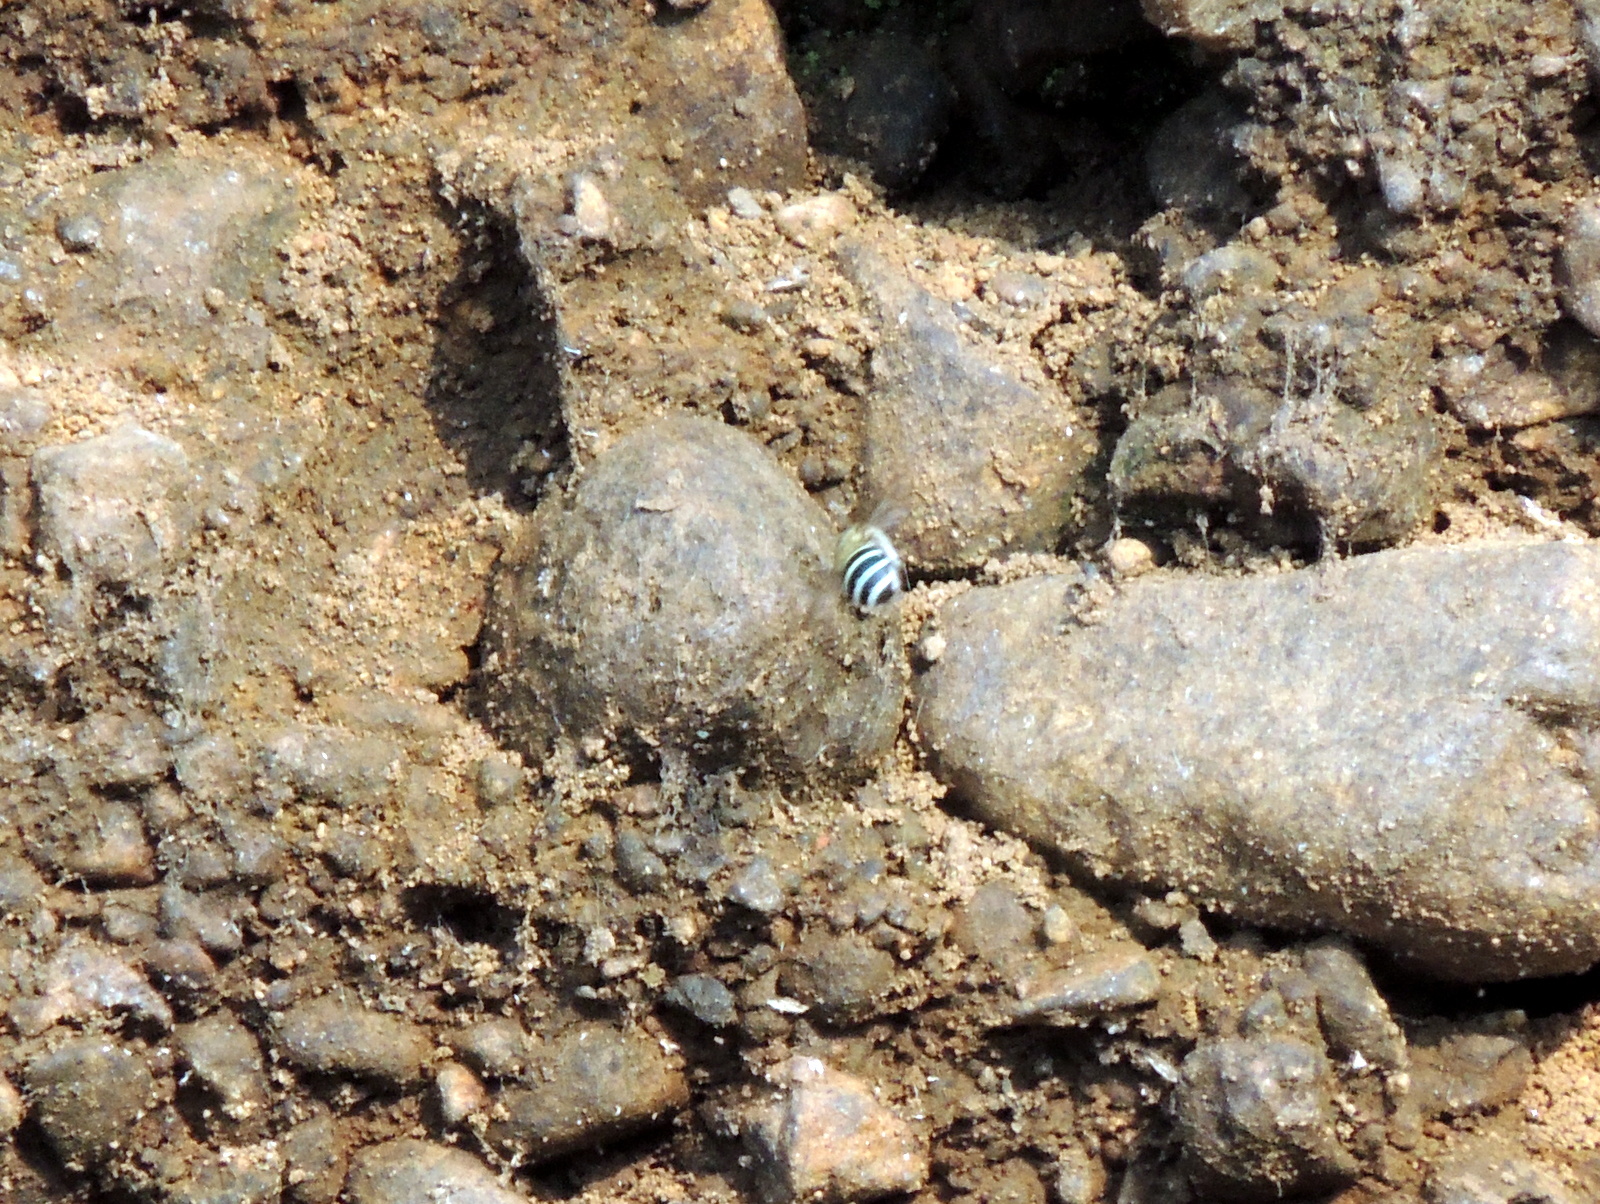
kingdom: Animalia
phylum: Arthropoda
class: Insecta
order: Hymenoptera
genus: Zonamegilla
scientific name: Zonamegilla
